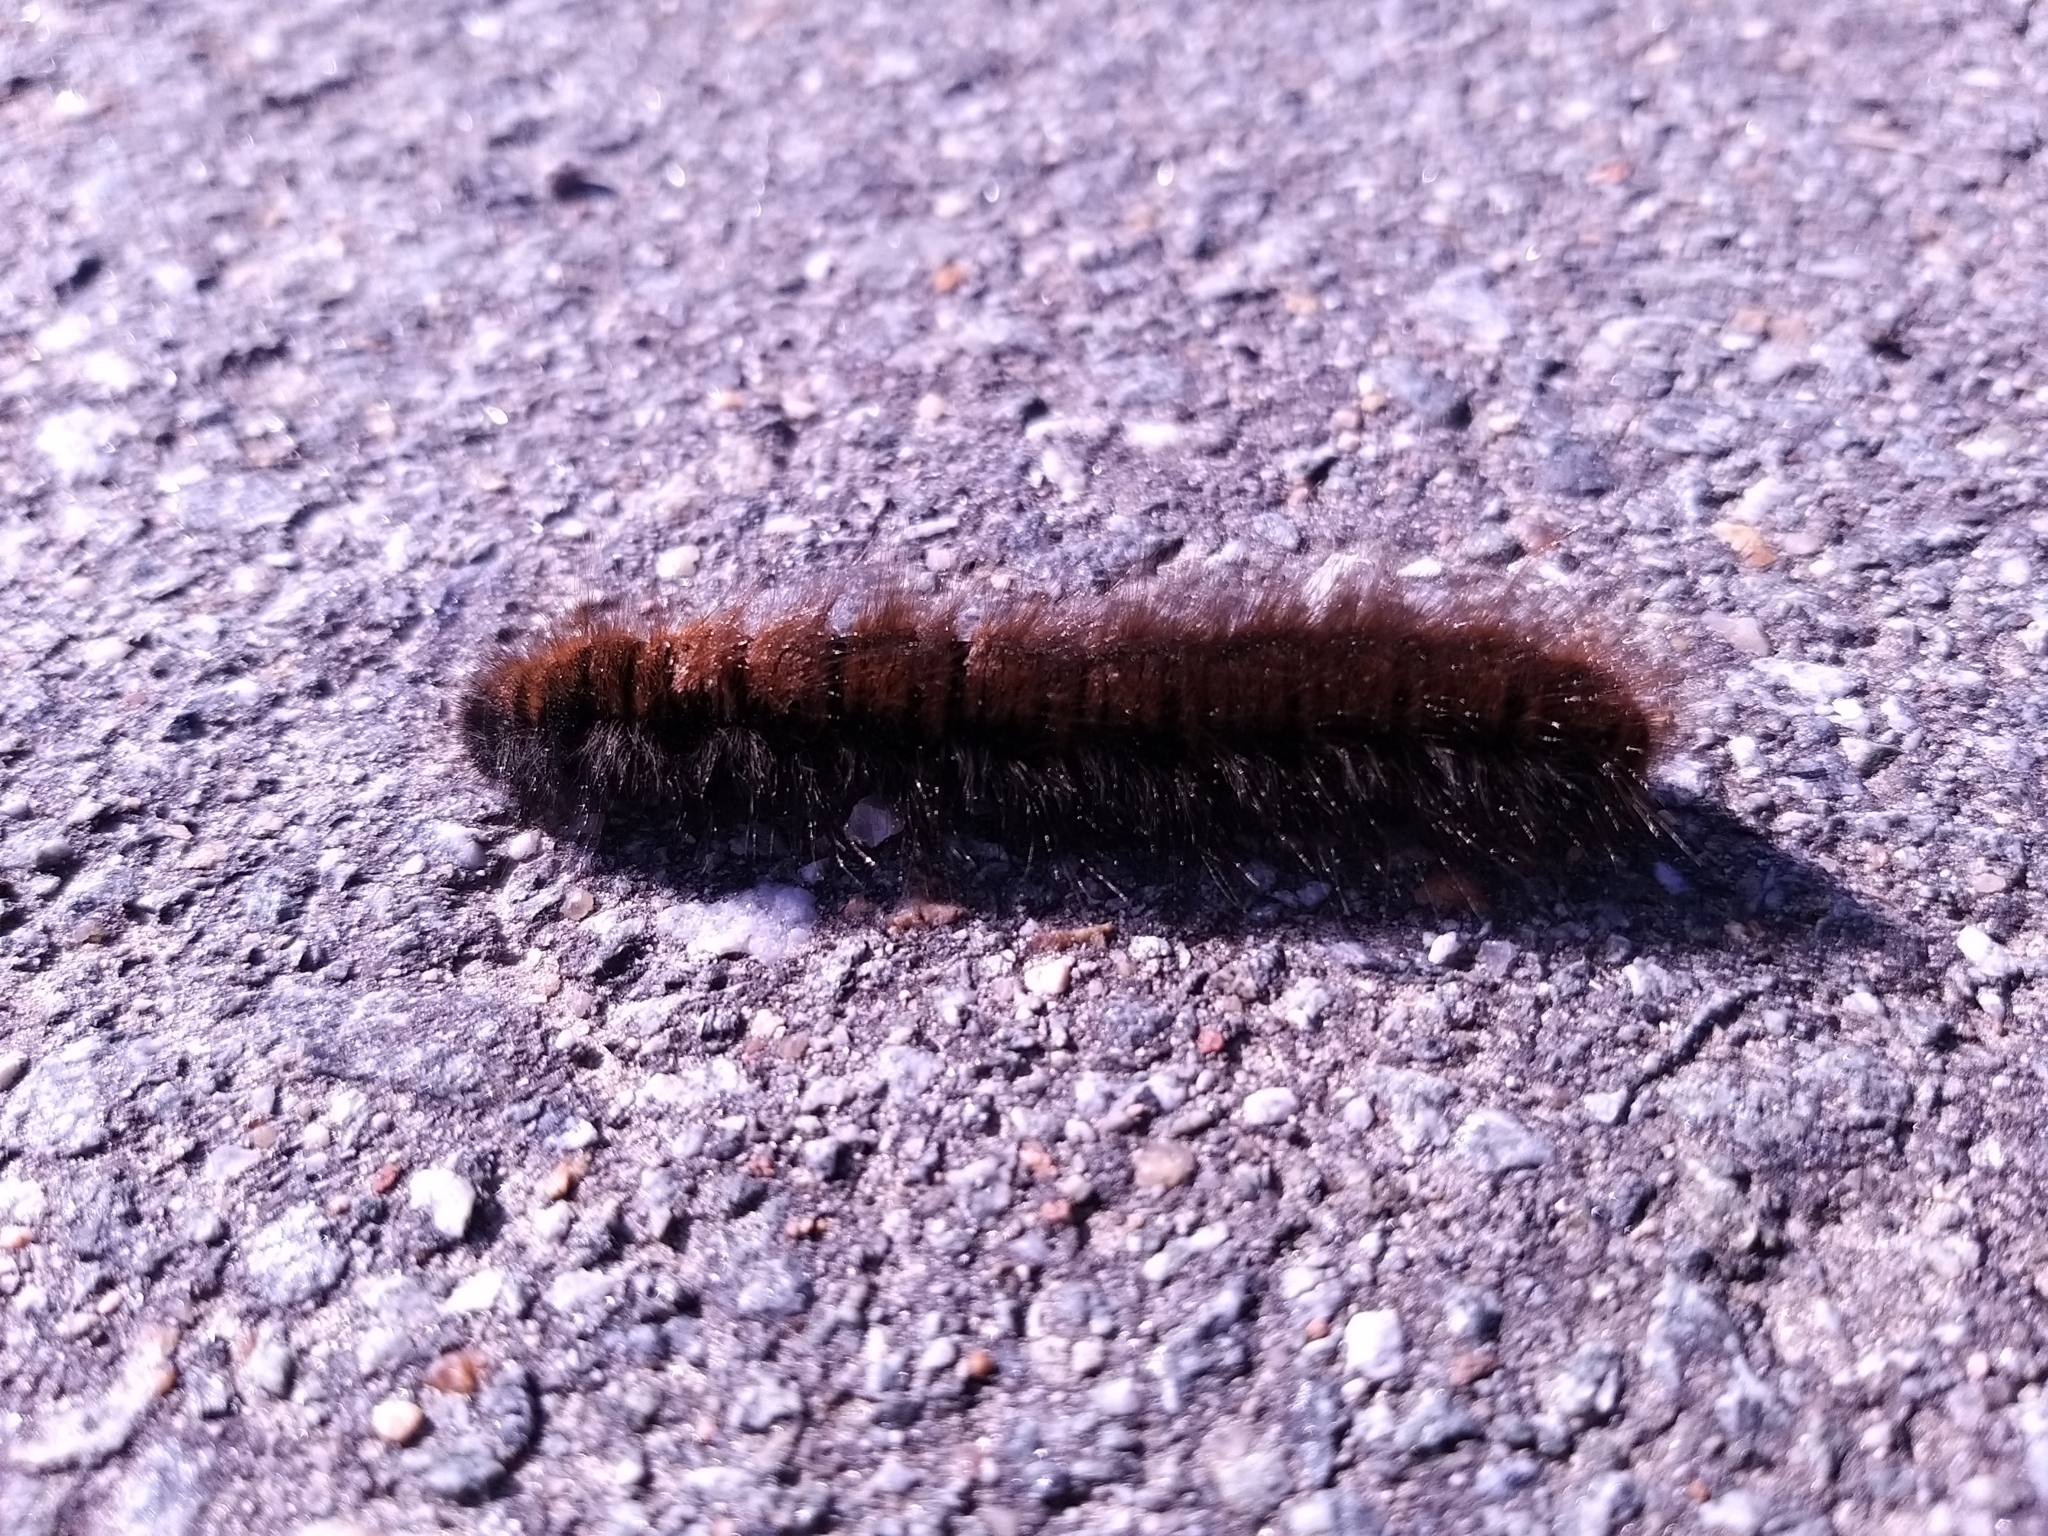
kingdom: Animalia
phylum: Arthropoda
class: Insecta
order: Lepidoptera
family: Lasiocampidae
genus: Macrothylacia
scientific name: Macrothylacia rubi
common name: Fox moth
